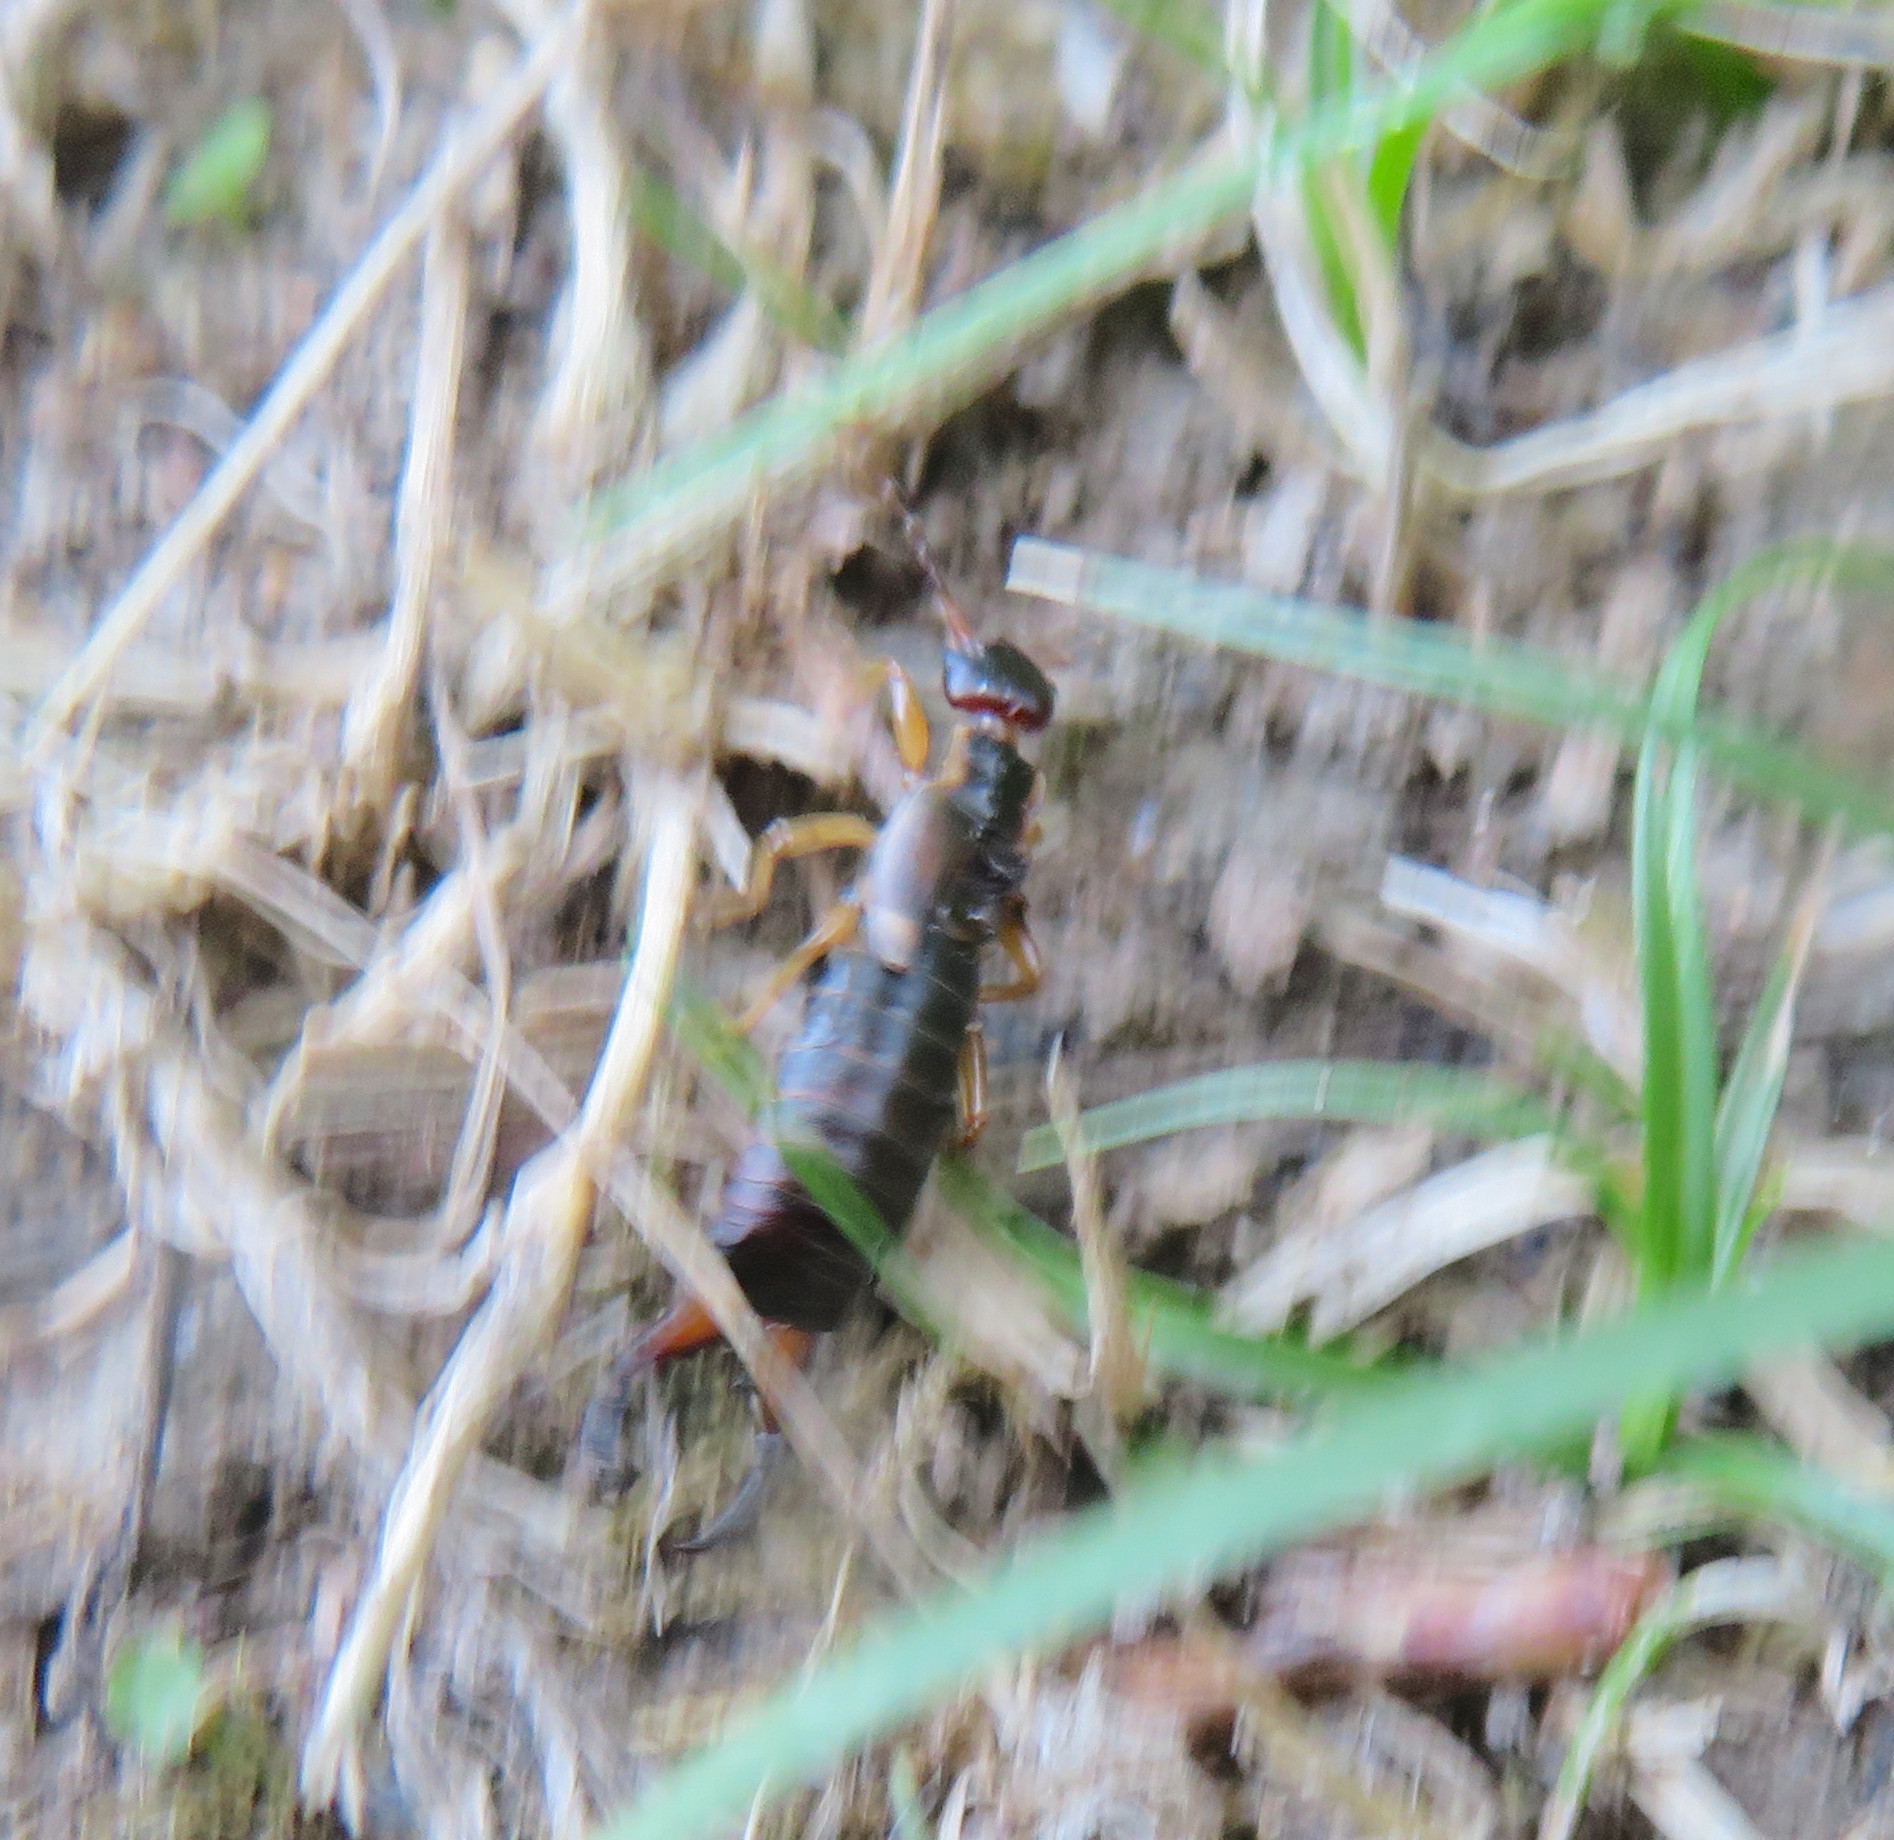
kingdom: Animalia
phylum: Arthropoda
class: Insecta
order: Dermaptera
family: Forficulidae
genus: Forficula
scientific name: Forficula
